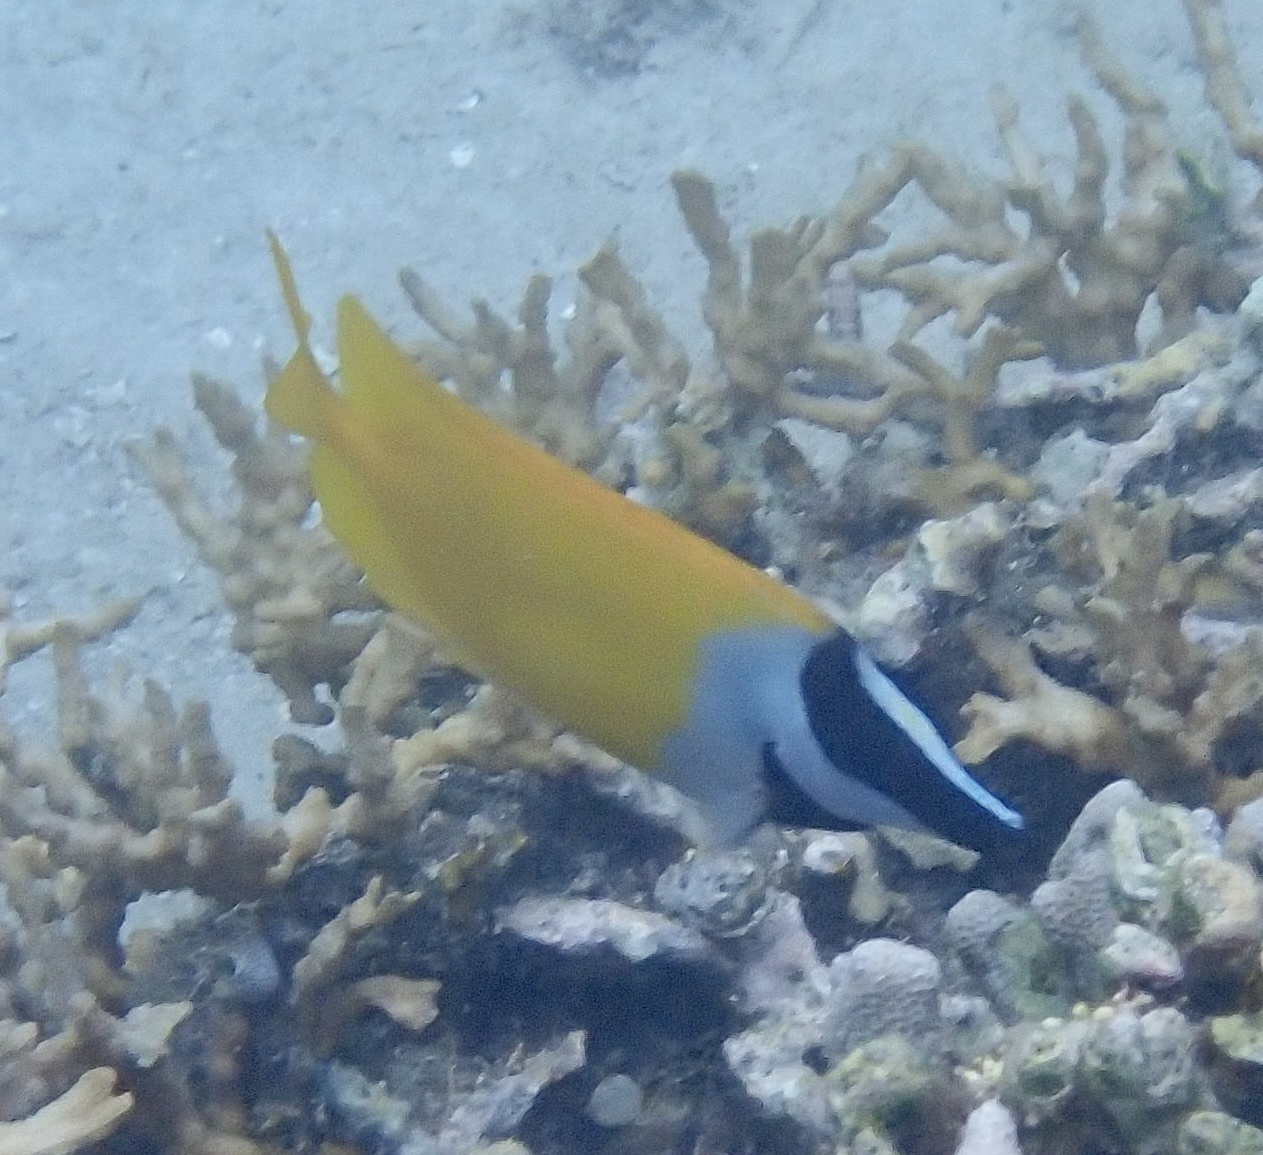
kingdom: Animalia
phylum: Chordata
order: Perciformes
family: Siganidae
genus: Siganus
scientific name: Siganus vulpinus
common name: Foxface
